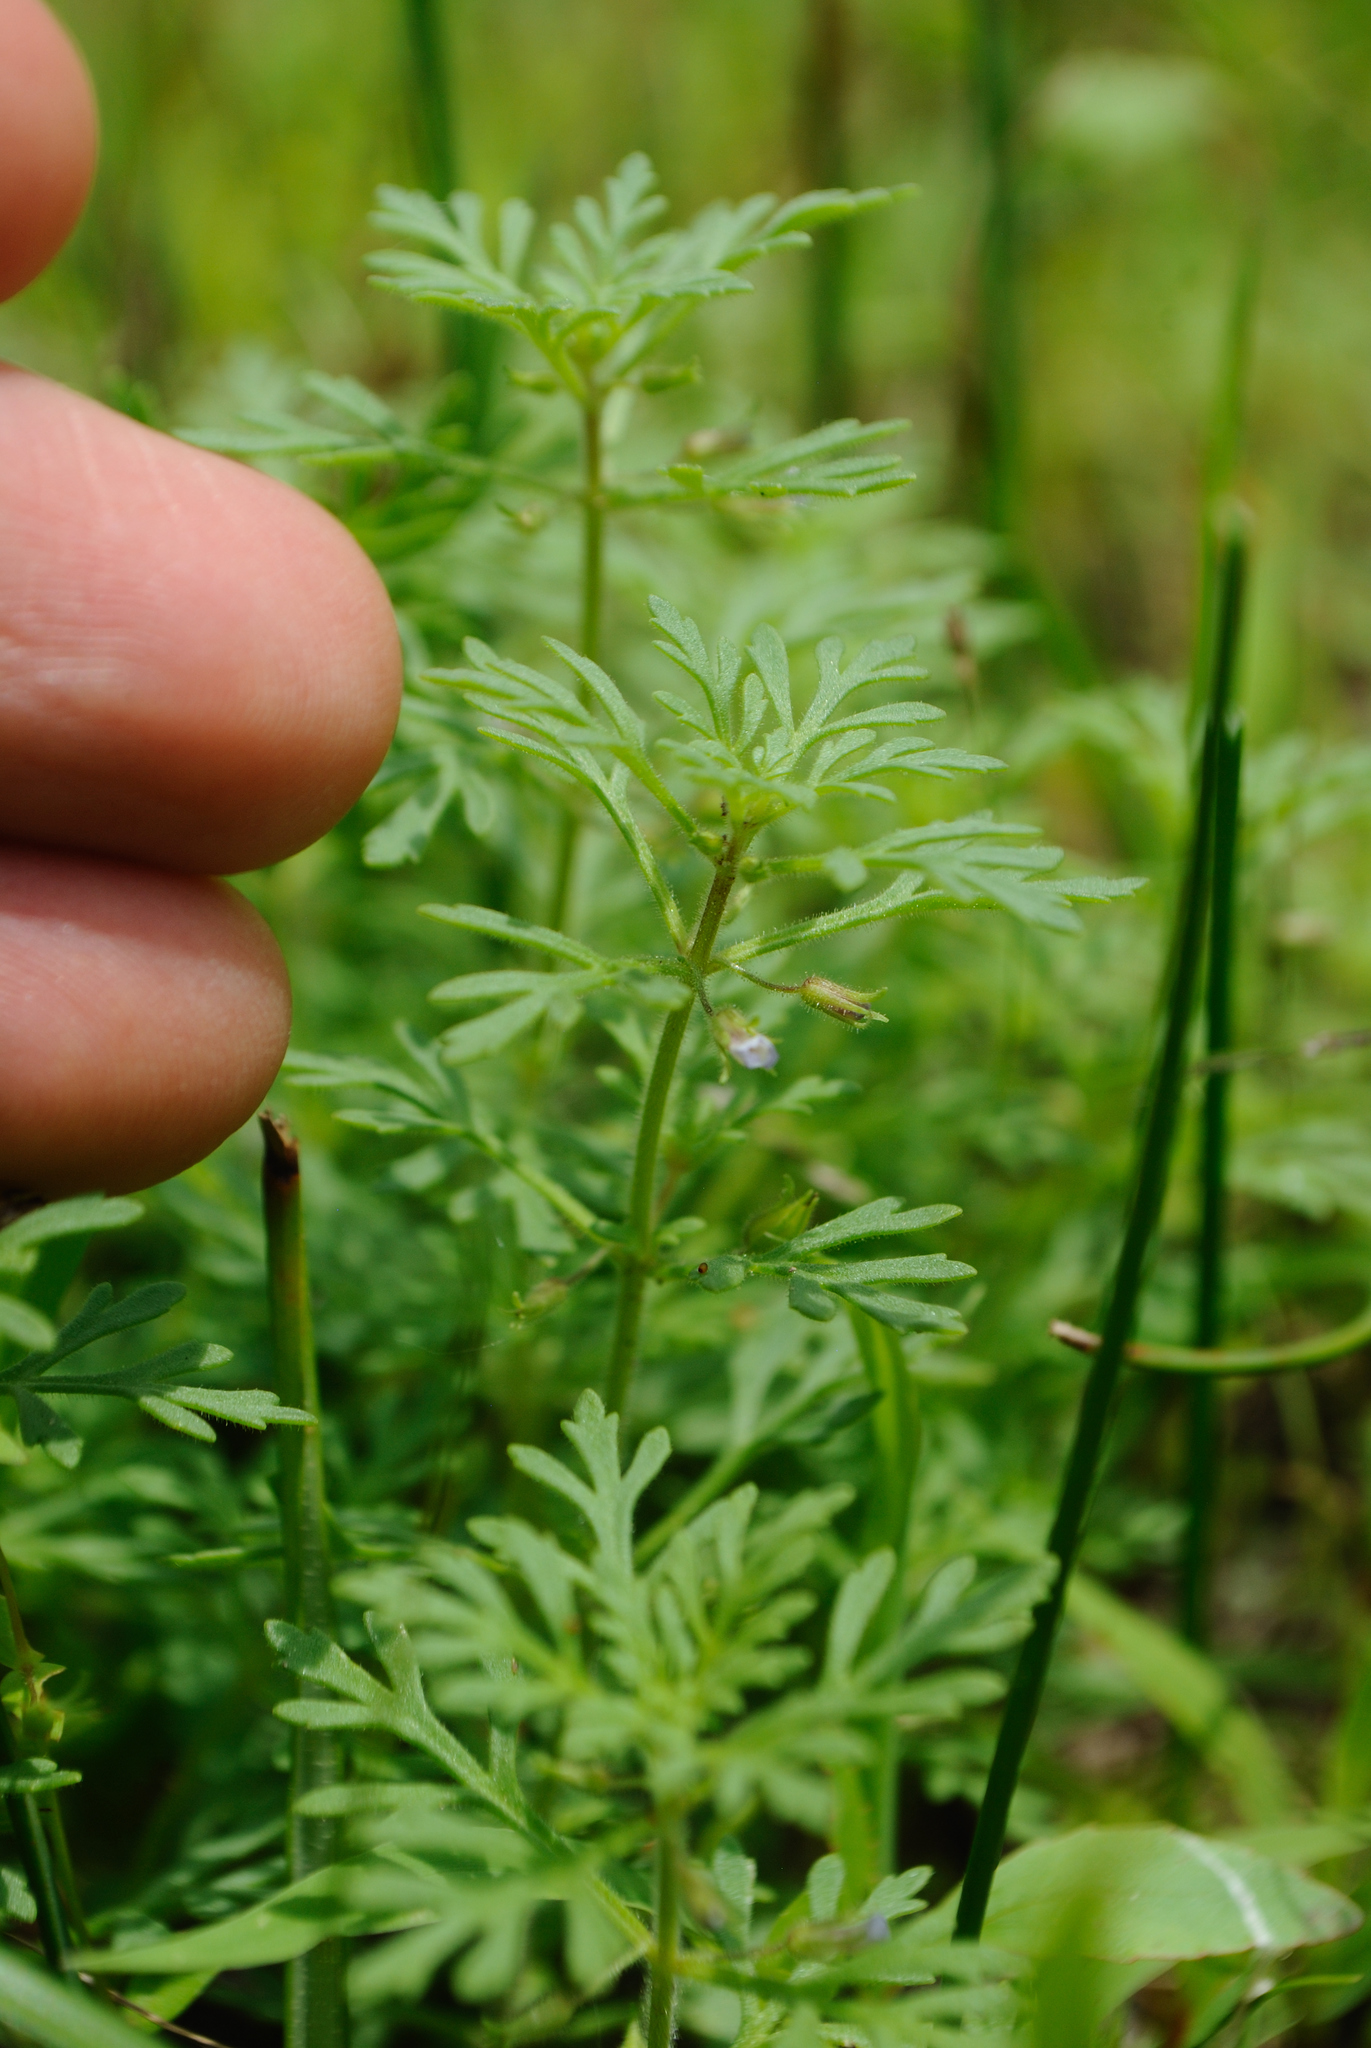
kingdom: Plantae
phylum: Tracheophyta
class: Magnoliopsida
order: Lamiales
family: Plantaginaceae
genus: Leucospora
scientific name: Leucospora multifida
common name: Narrow-leaf paleseed
